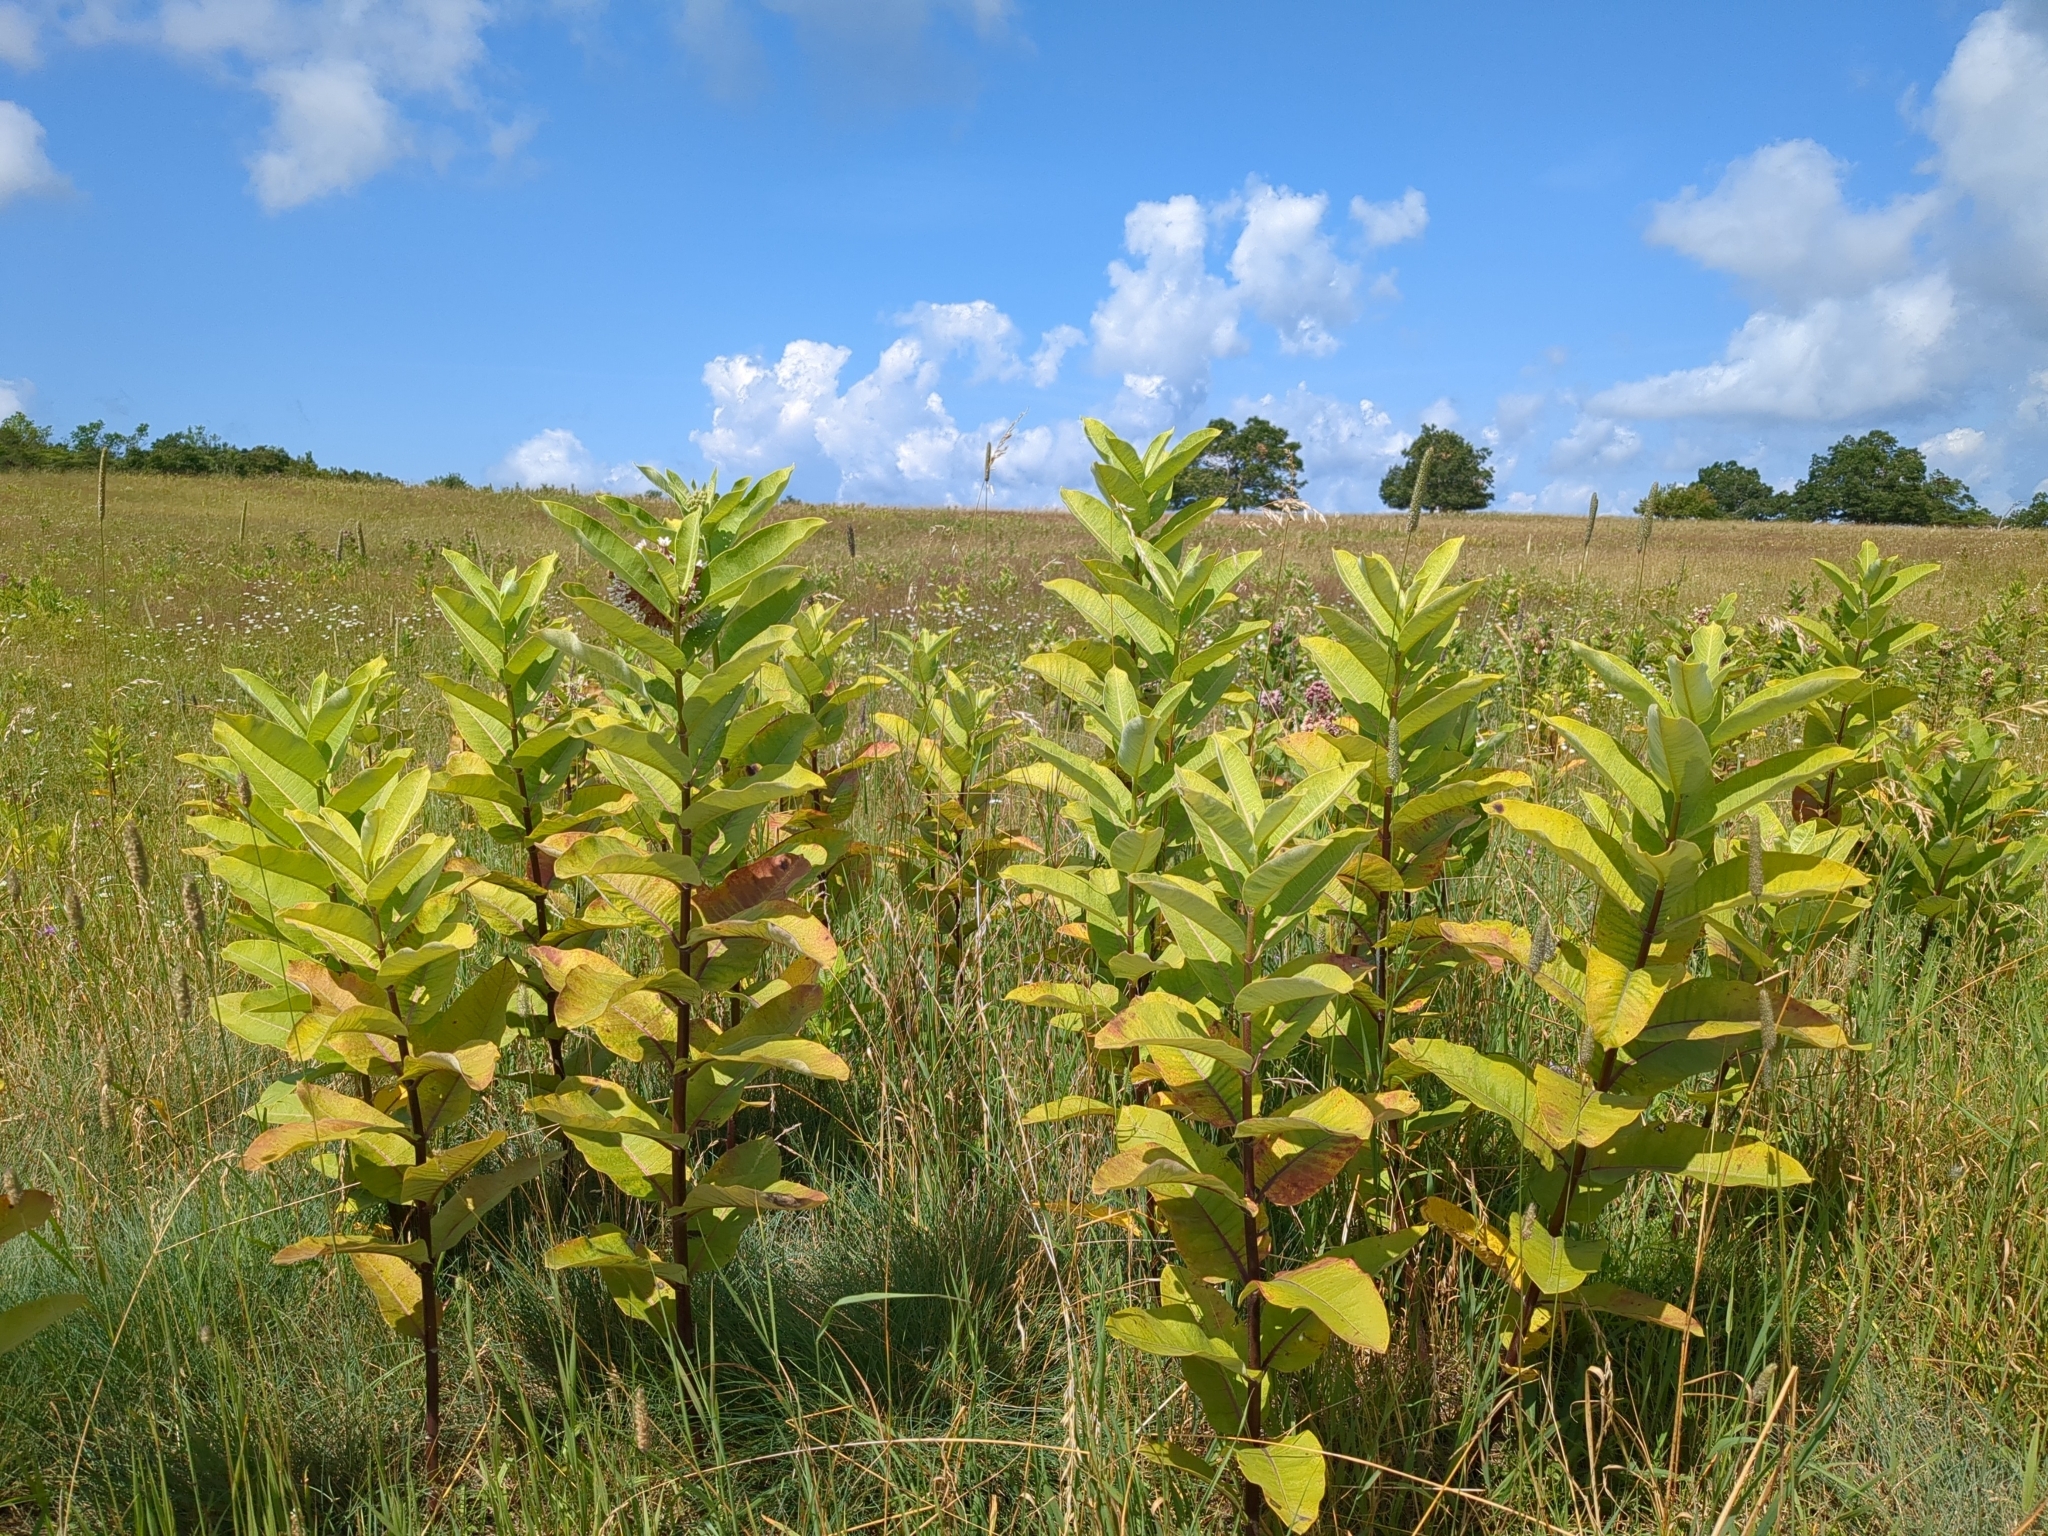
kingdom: Plantae
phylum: Tracheophyta
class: Magnoliopsida
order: Gentianales
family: Apocynaceae
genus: Asclepias
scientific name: Asclepias syriaca
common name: Common milkweed
